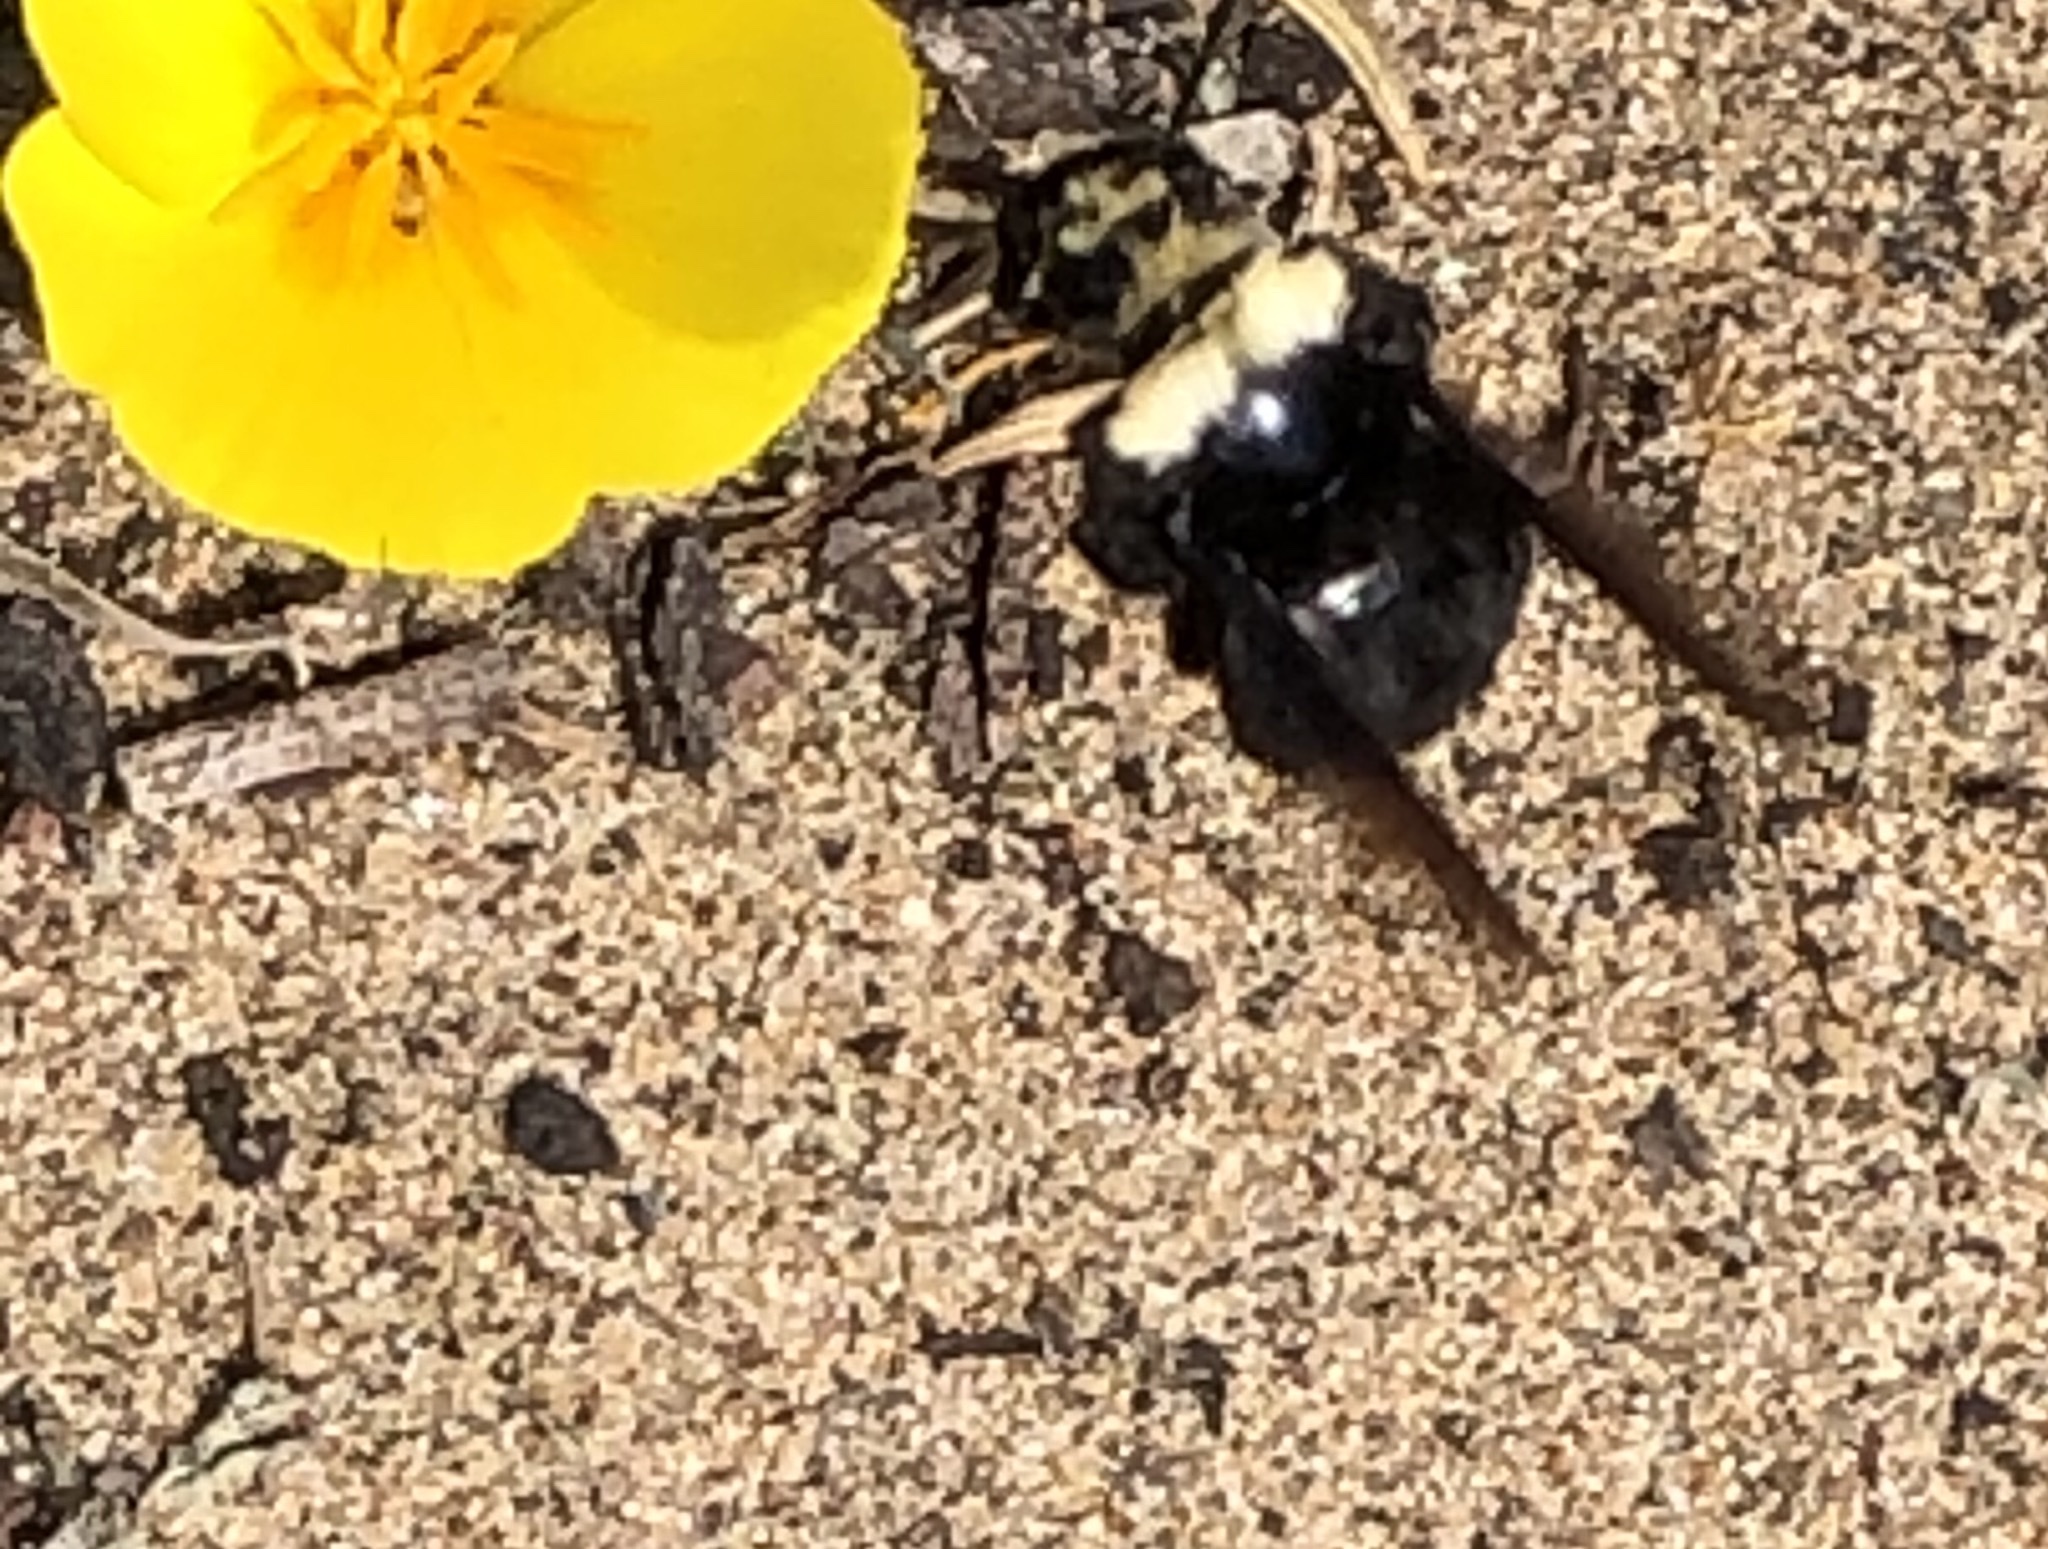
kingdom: Animalia
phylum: Arthropoda
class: Insecta
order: Hymenoptera
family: Apidae
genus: Bombus
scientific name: Bombus vosnesenskii
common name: Vosnesensky bumble bee
